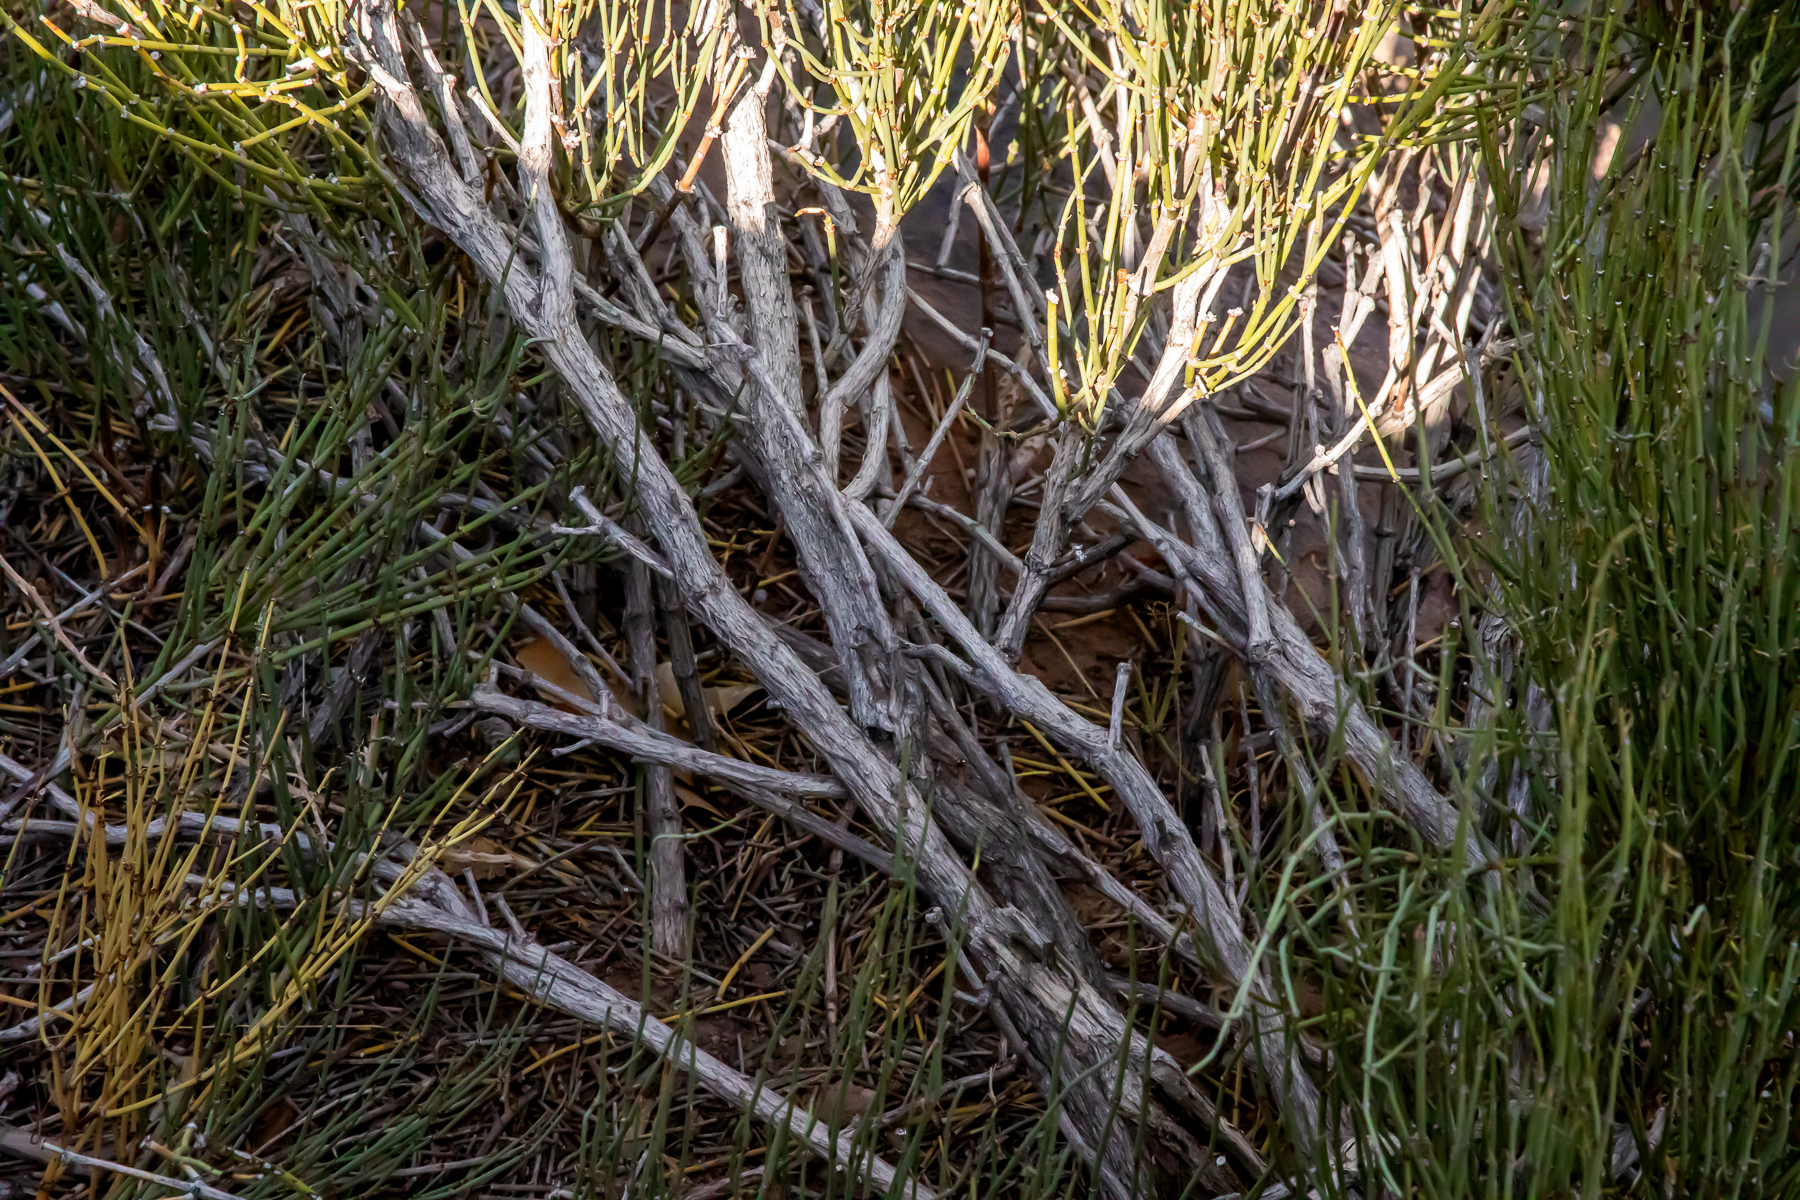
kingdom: Plantae
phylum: Tracheophyta
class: Gnetopsida
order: Ephedrales
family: Ephedraceae
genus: Ephedra
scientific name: Ephedra viridis
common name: Green ephedra
